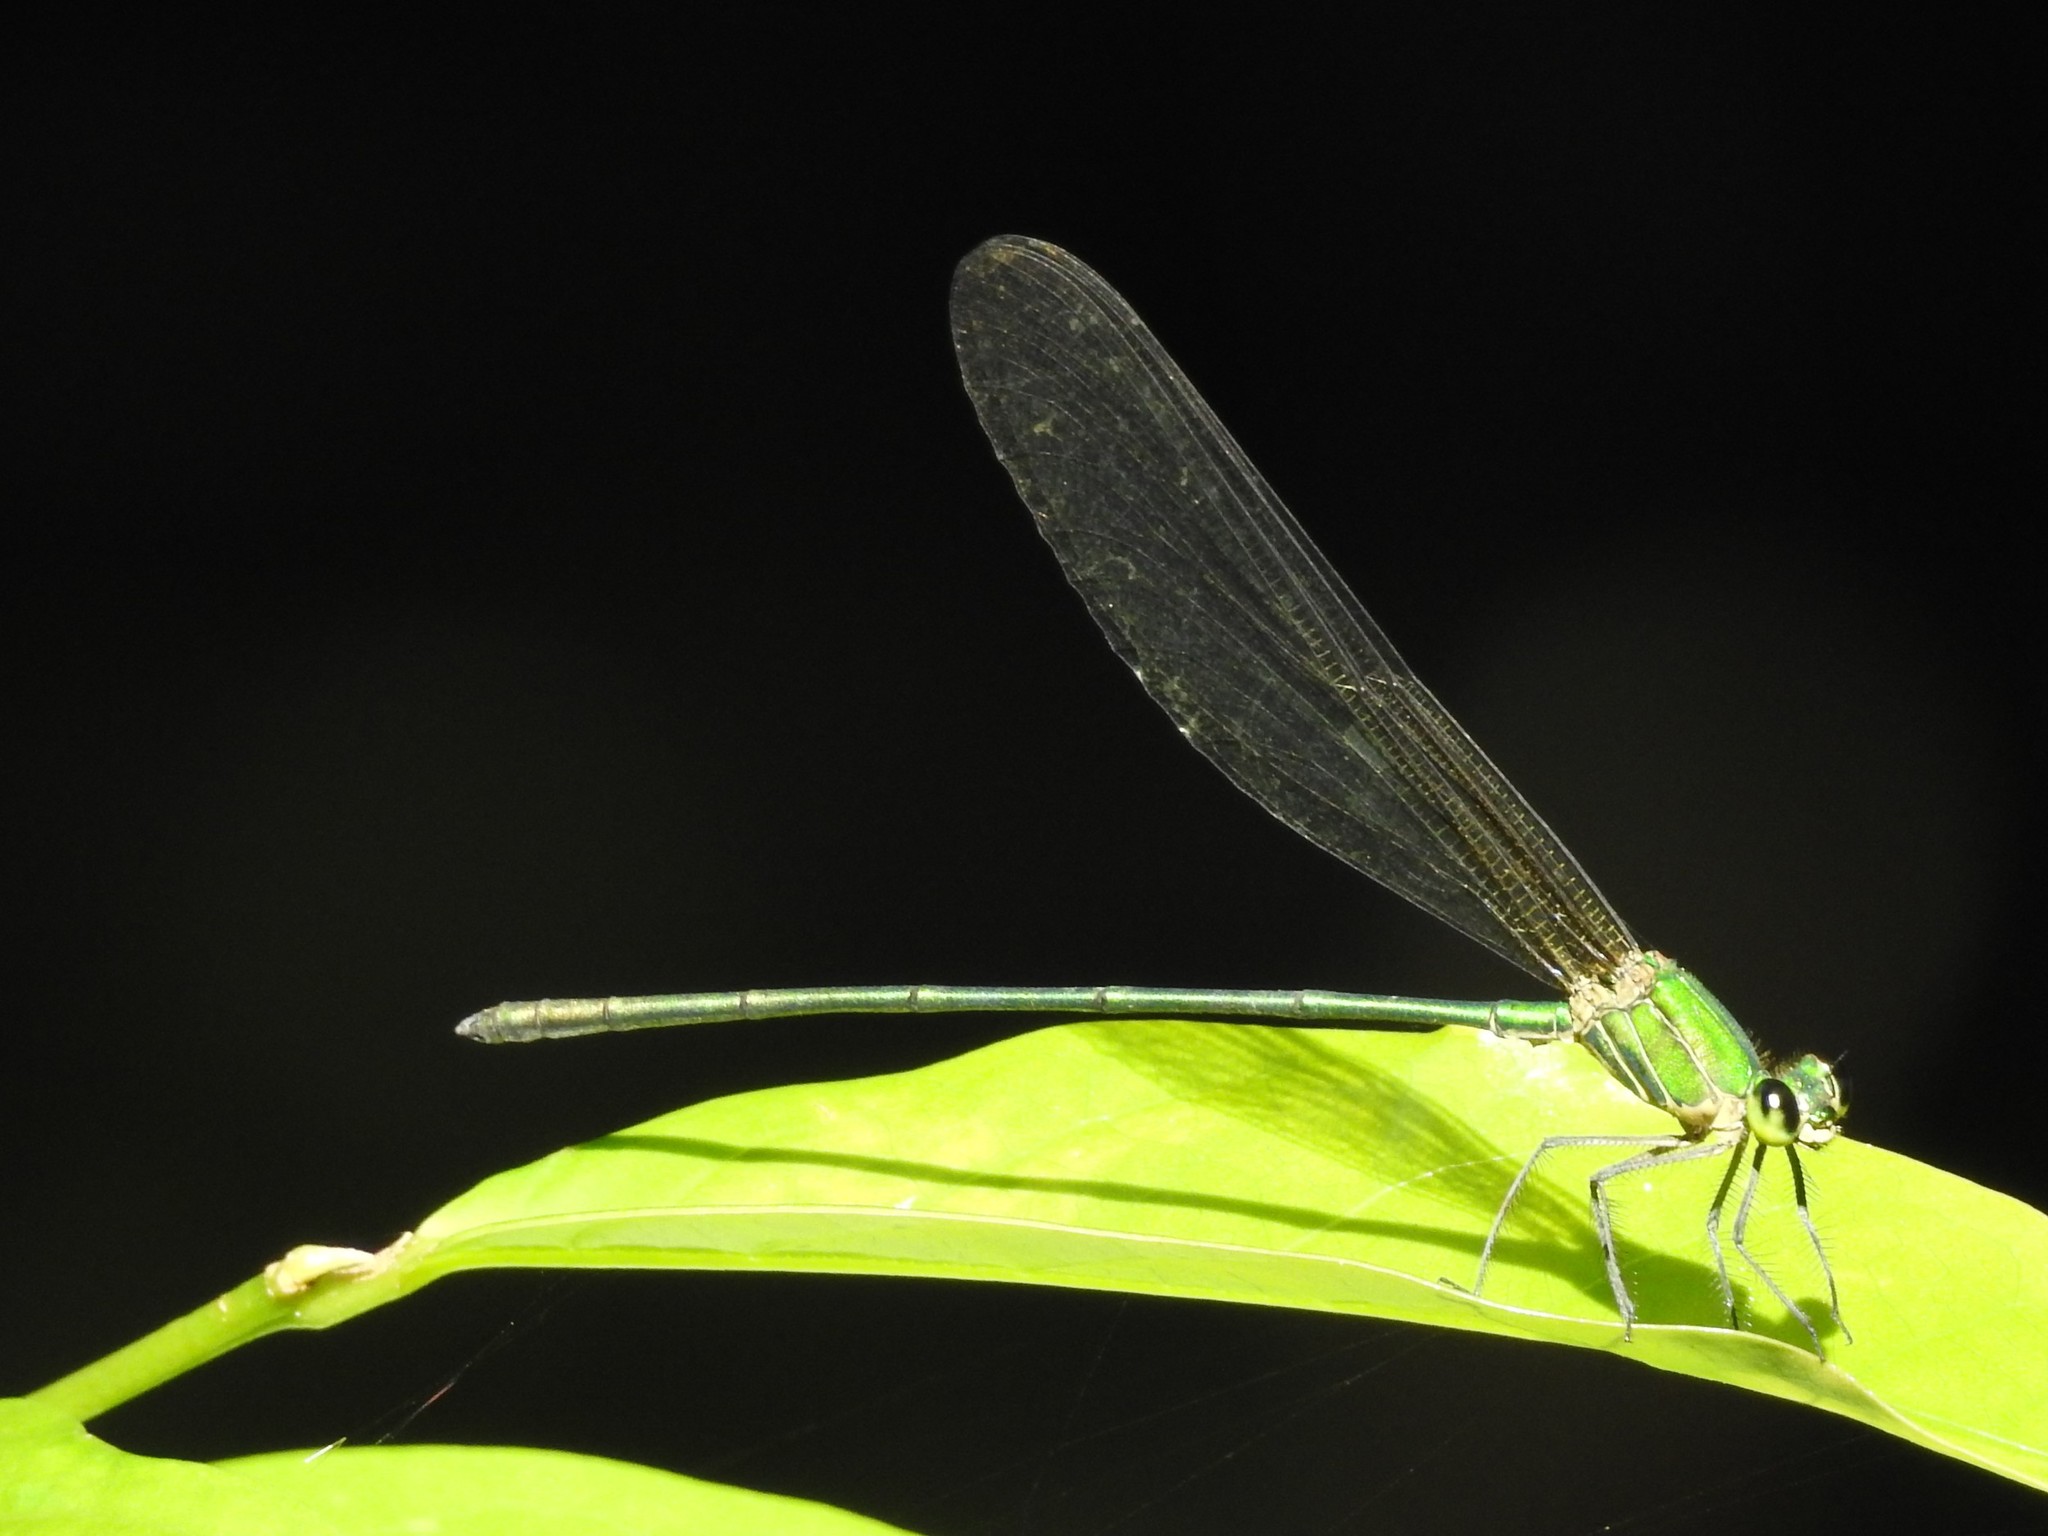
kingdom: Animalia
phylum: Arthropoda
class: Insecta
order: Odonata
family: Calopterygidae
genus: Vestalis
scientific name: Vestalis gracilis
